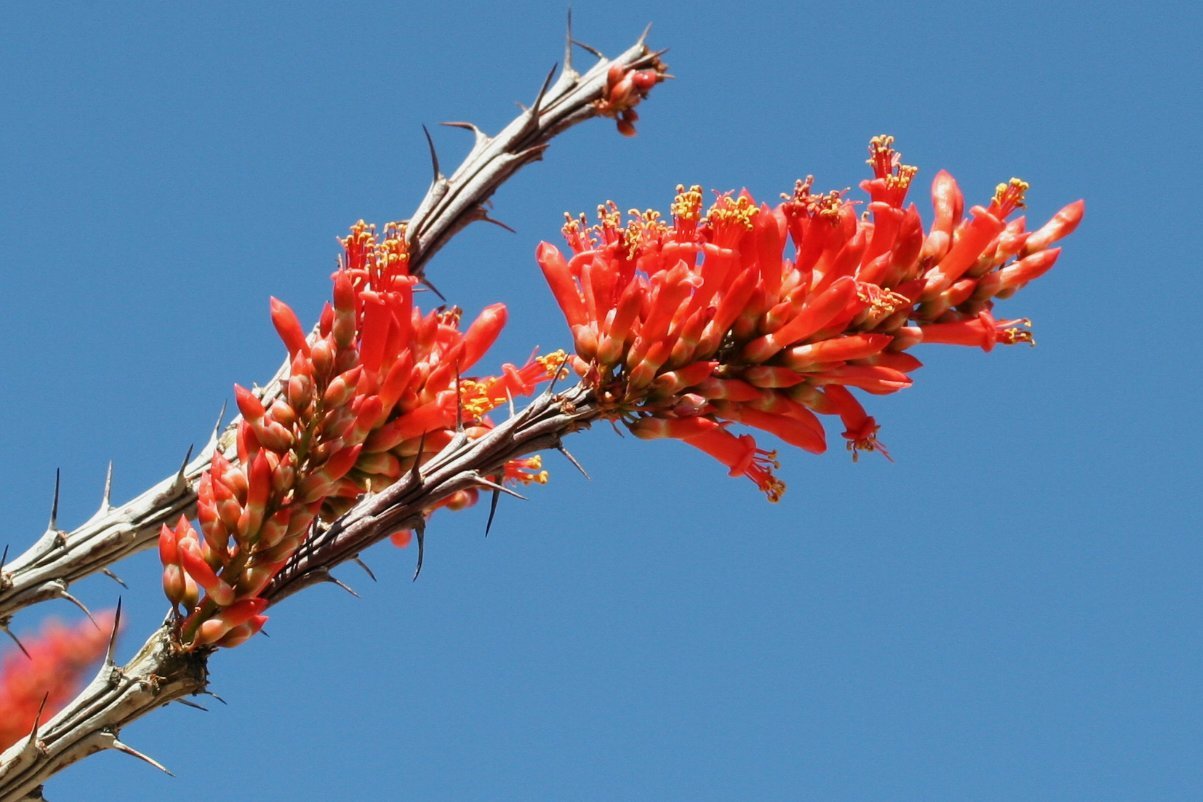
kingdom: Plantae
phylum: Tracheophyta
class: Magnoliopsida
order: Ericales
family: Fouquieriaceae
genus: Fouquieria
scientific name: Fouquieria splendens
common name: Vine-cactus
